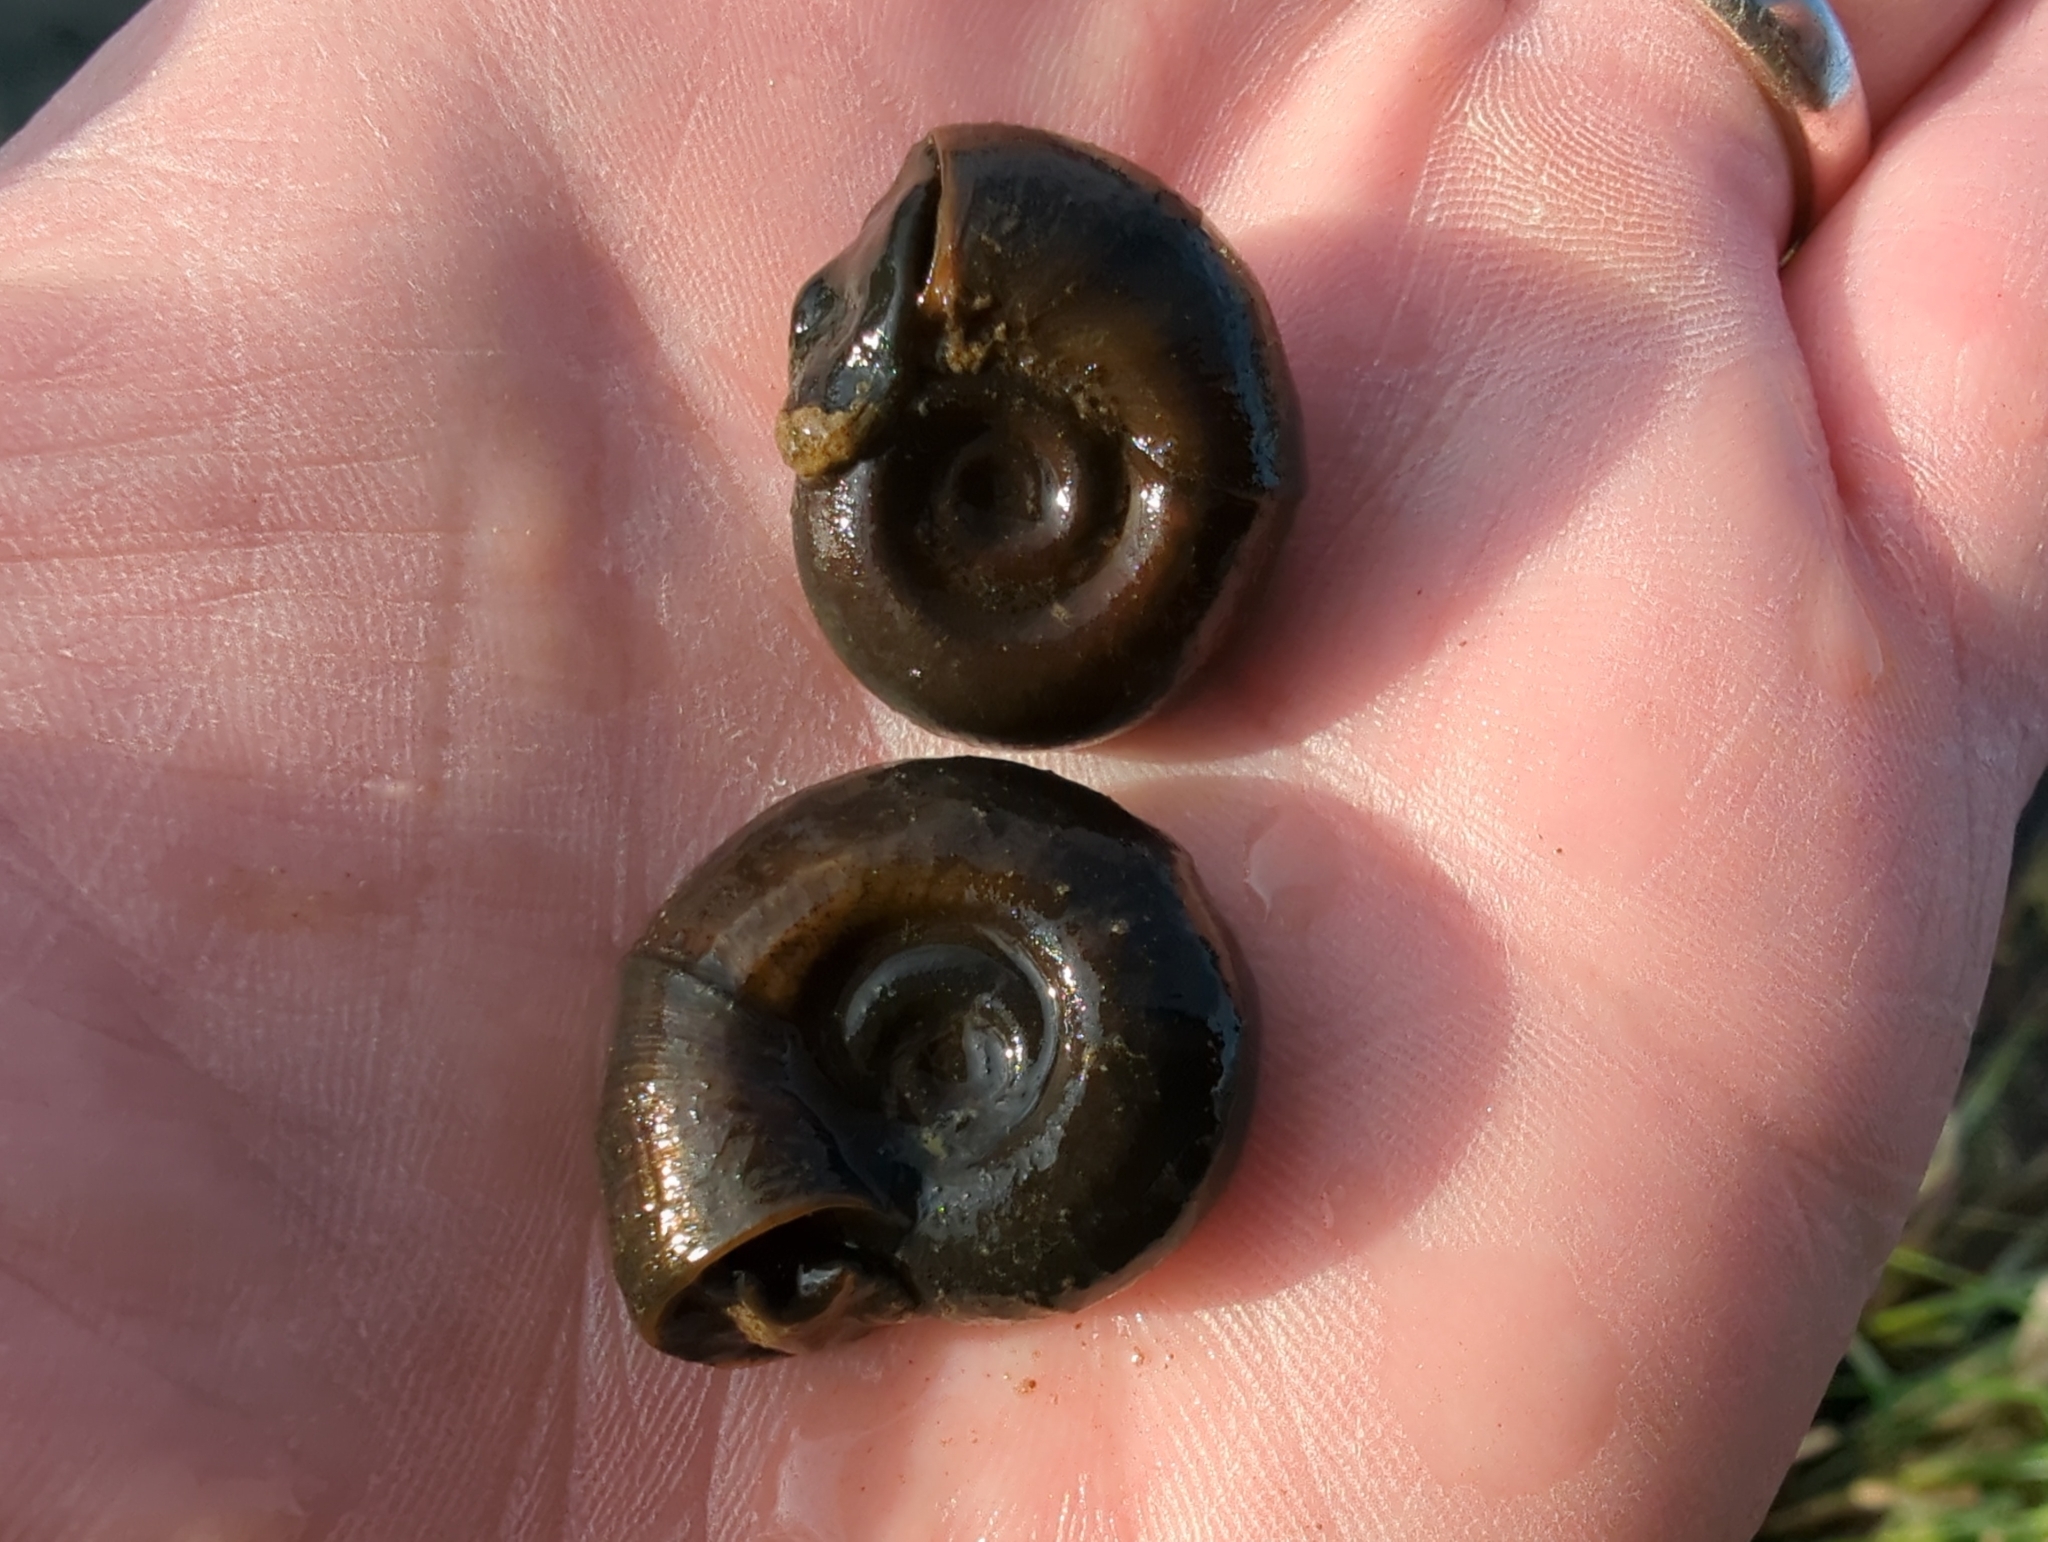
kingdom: Animalia
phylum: Mollusca
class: Gastropoda
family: Planorbidae
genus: Planorbarius
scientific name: Planorbarius corneus
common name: Great ramshorn
